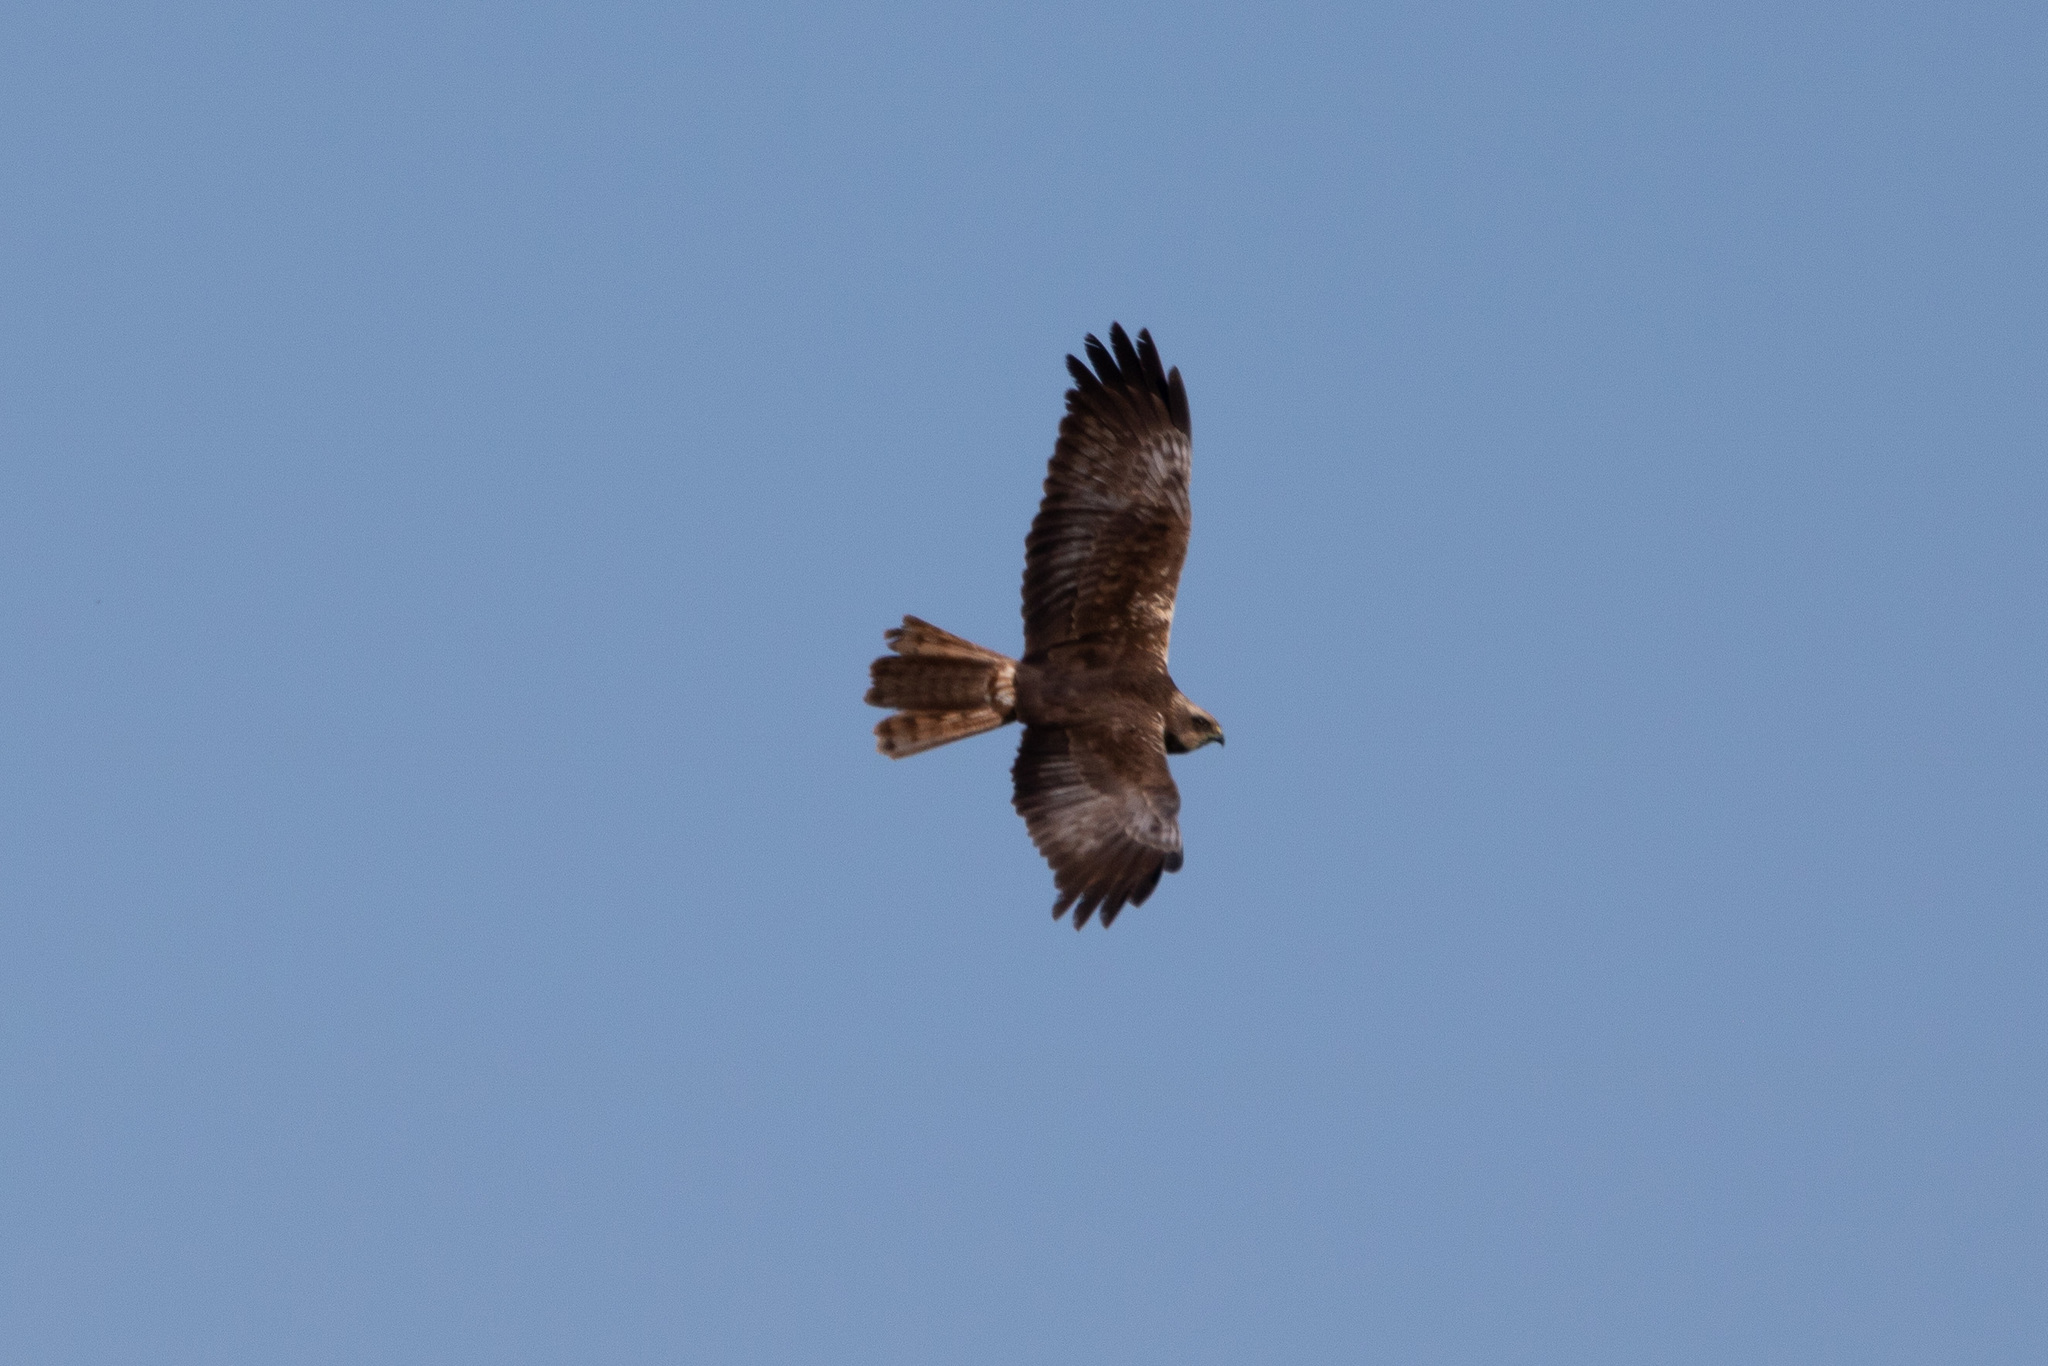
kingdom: Animalia
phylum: Chordata
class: Aves
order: Accipitriformes
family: Accipitridae
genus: Circus
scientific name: Circus aeruginosus
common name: Western marsh harrier
